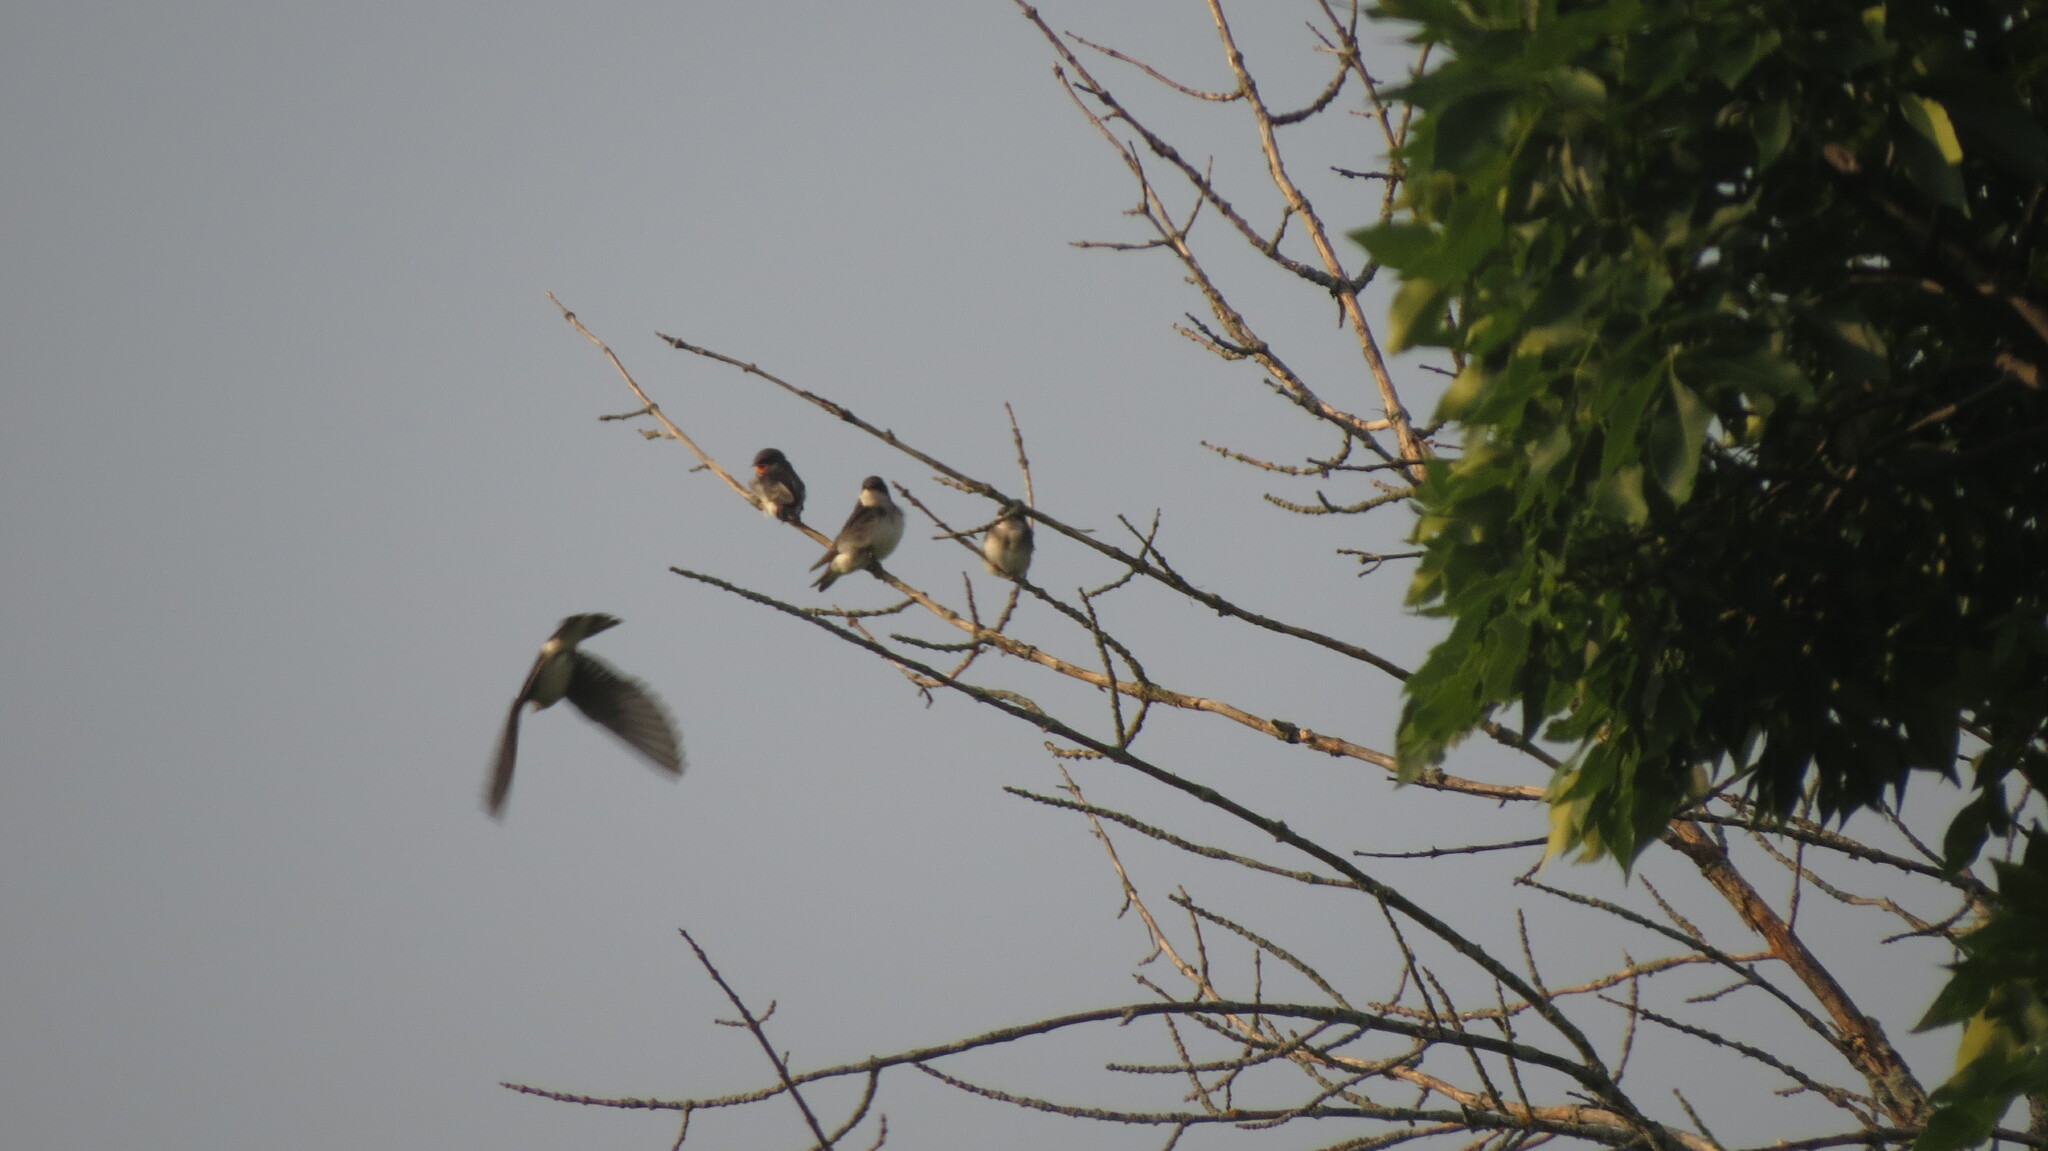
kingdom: Animalia
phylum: Chordata
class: Aves
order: Passeriformes
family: Hirundinidae
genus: Tachycineta
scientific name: Tachycineta bicolor
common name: Tree swallow
